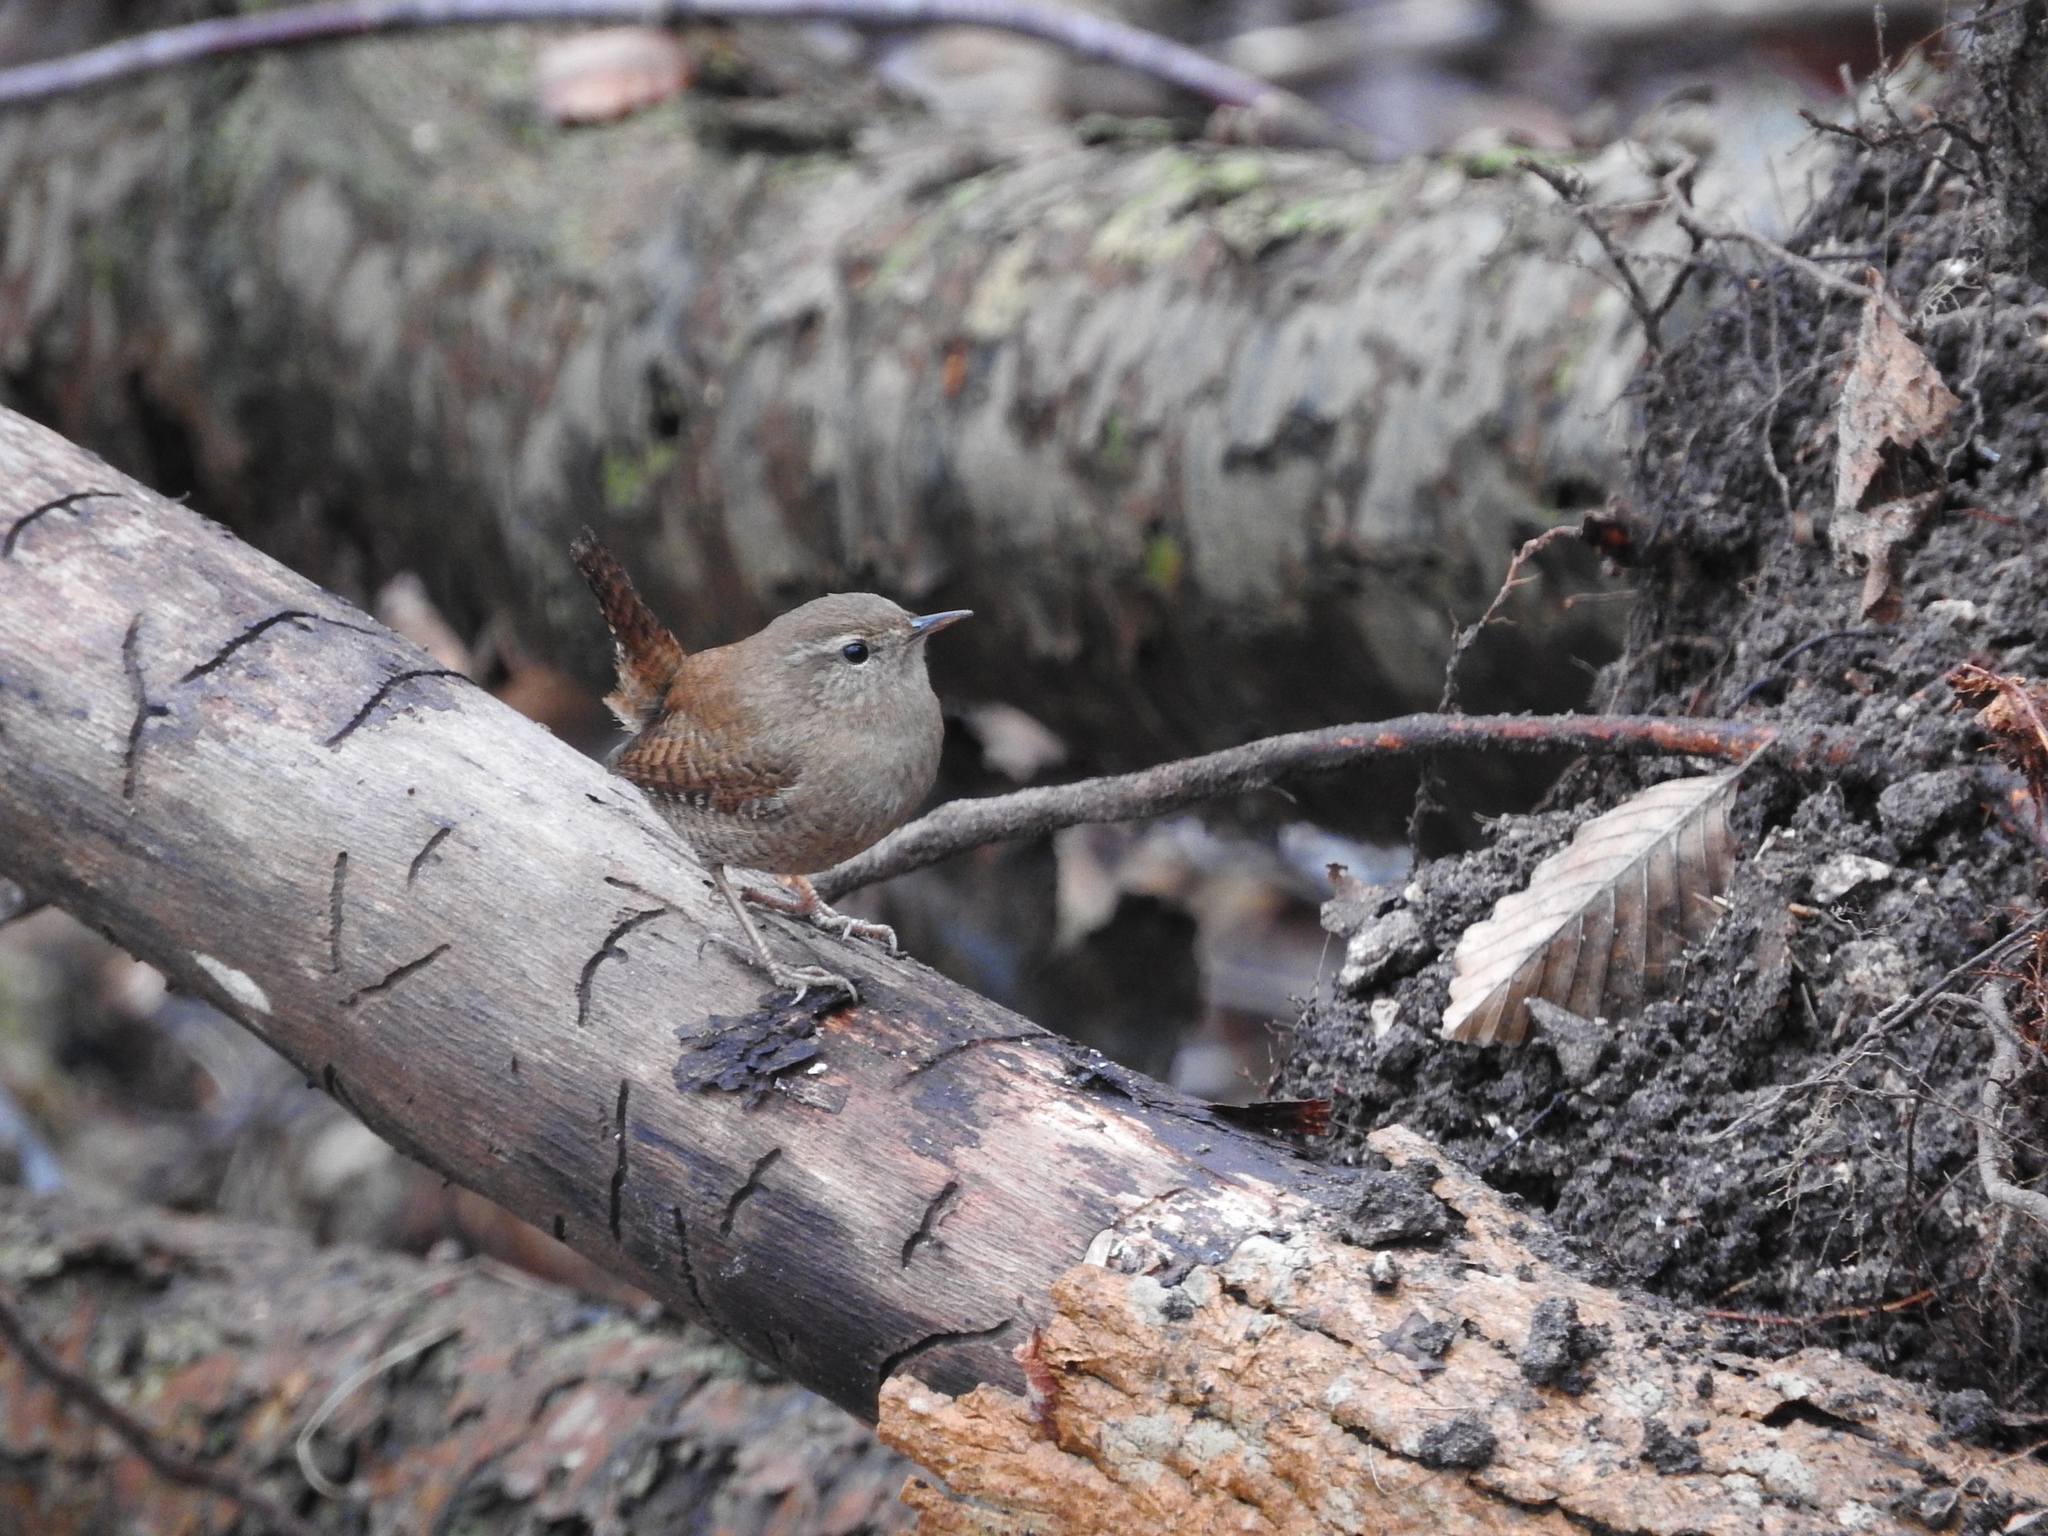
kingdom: Animalia
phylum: Chordata
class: Aves
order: Passeriformes
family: Troglodytidae
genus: Troglodytes
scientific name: Troglodytes troglodytes
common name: Eurasian wren
